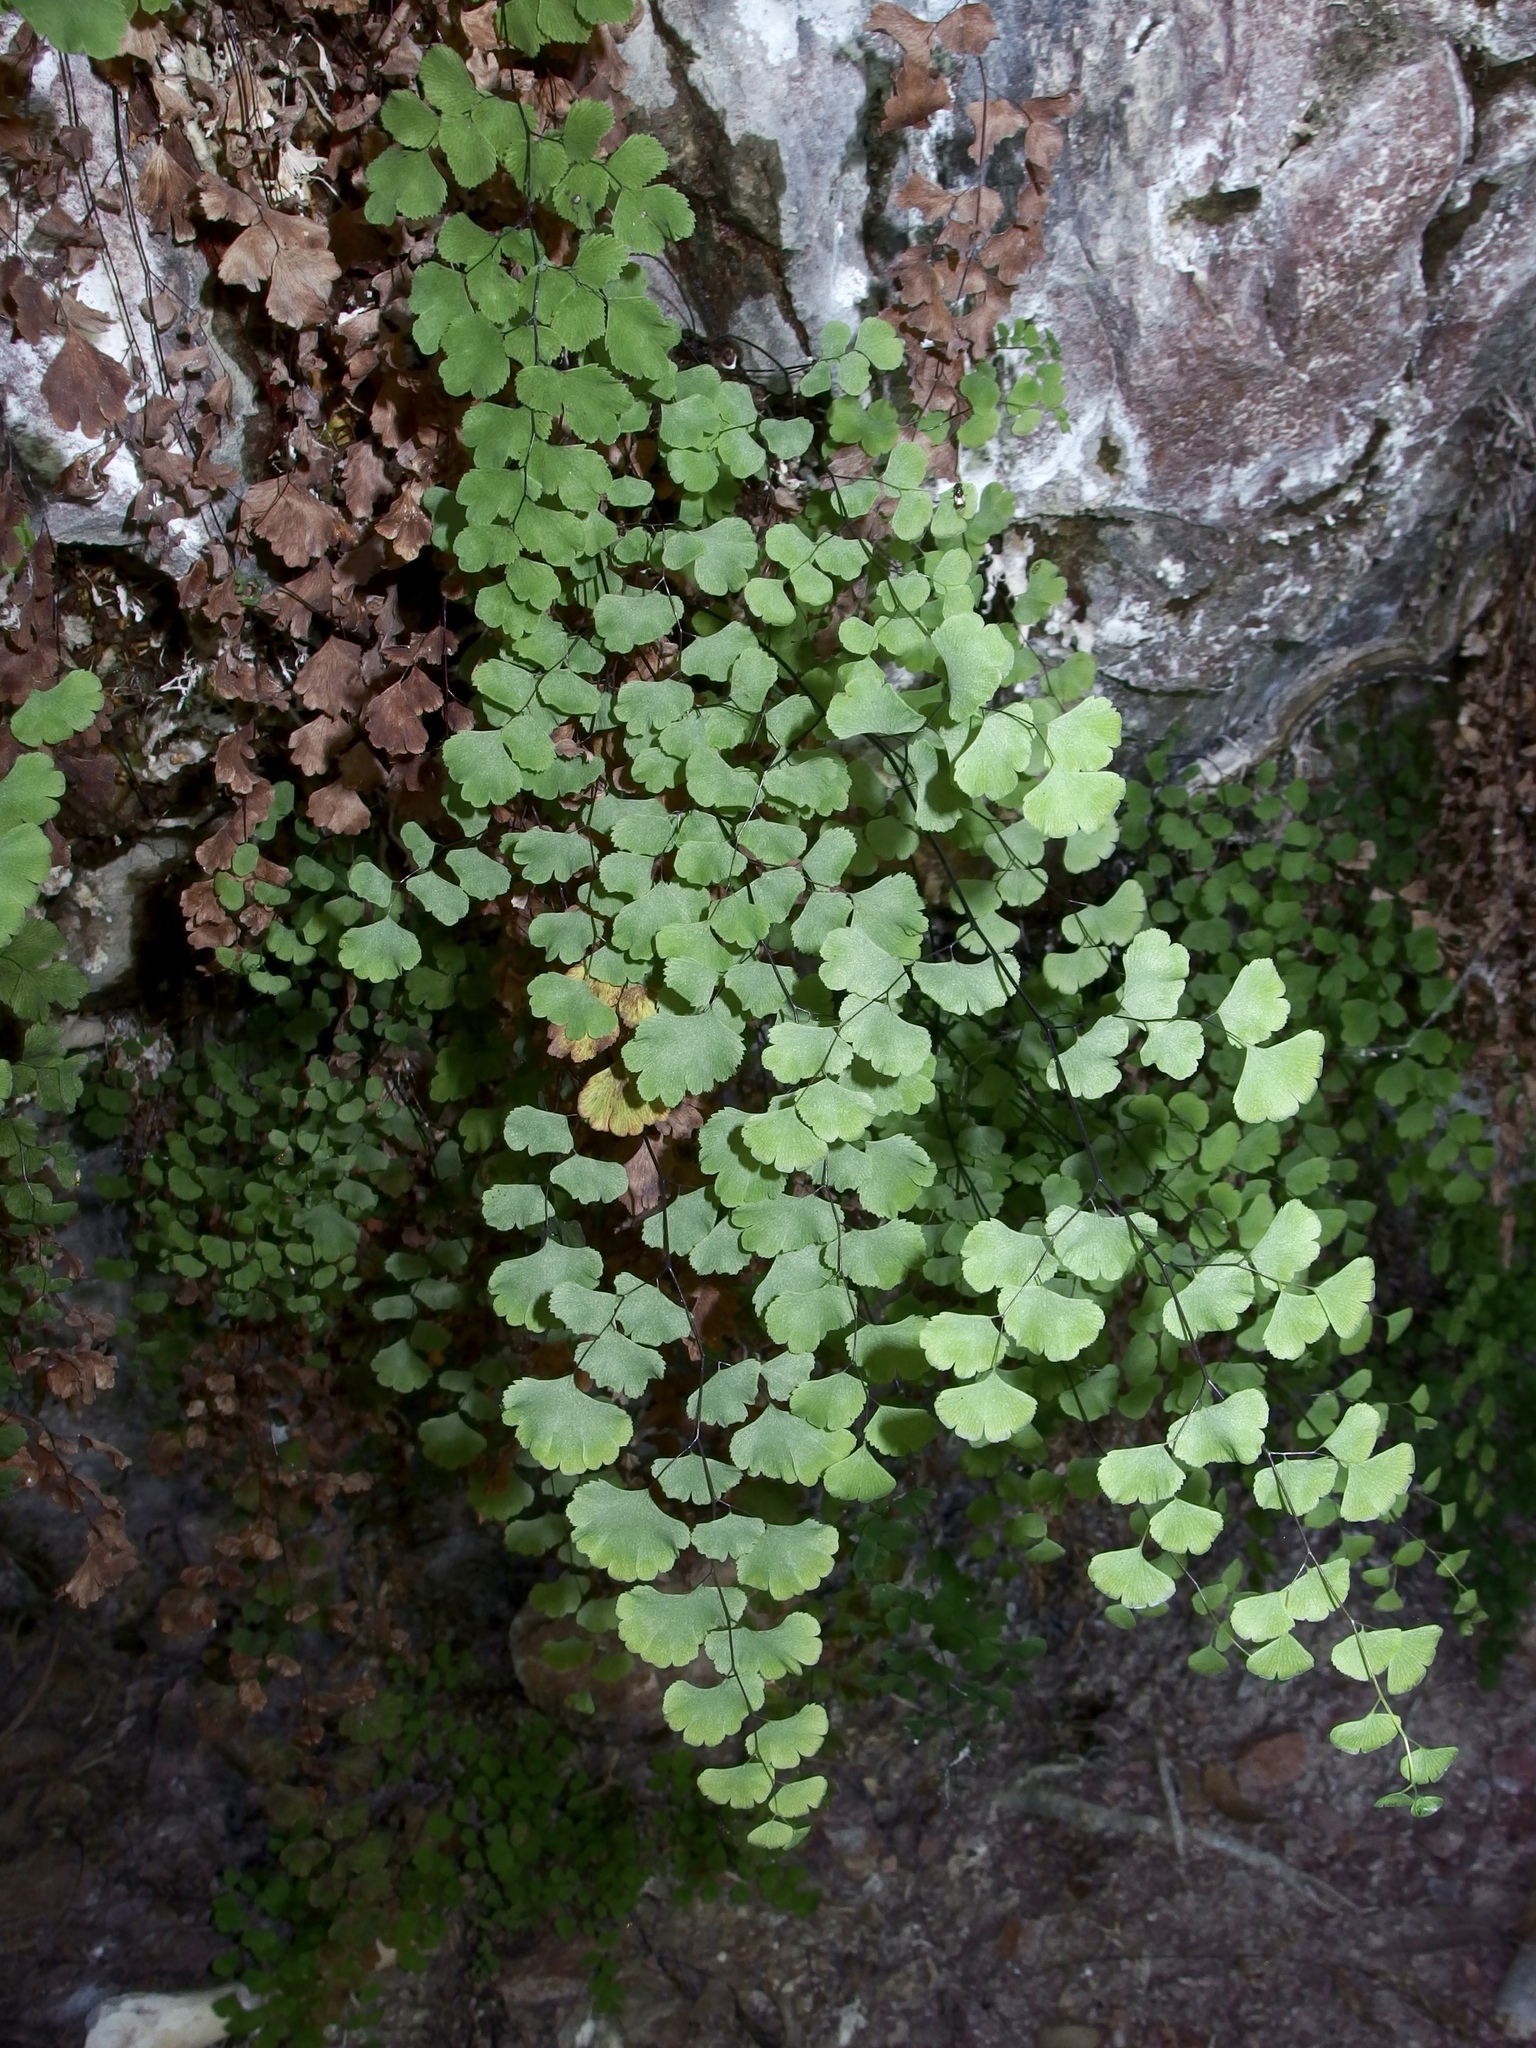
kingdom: Plantae
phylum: Tracheophyta
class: Polypodiopsida
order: Polypodiales
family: Pteridaceae
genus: Adiantum
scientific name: Adiantum capillus-veneris
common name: Maidenhair fern
